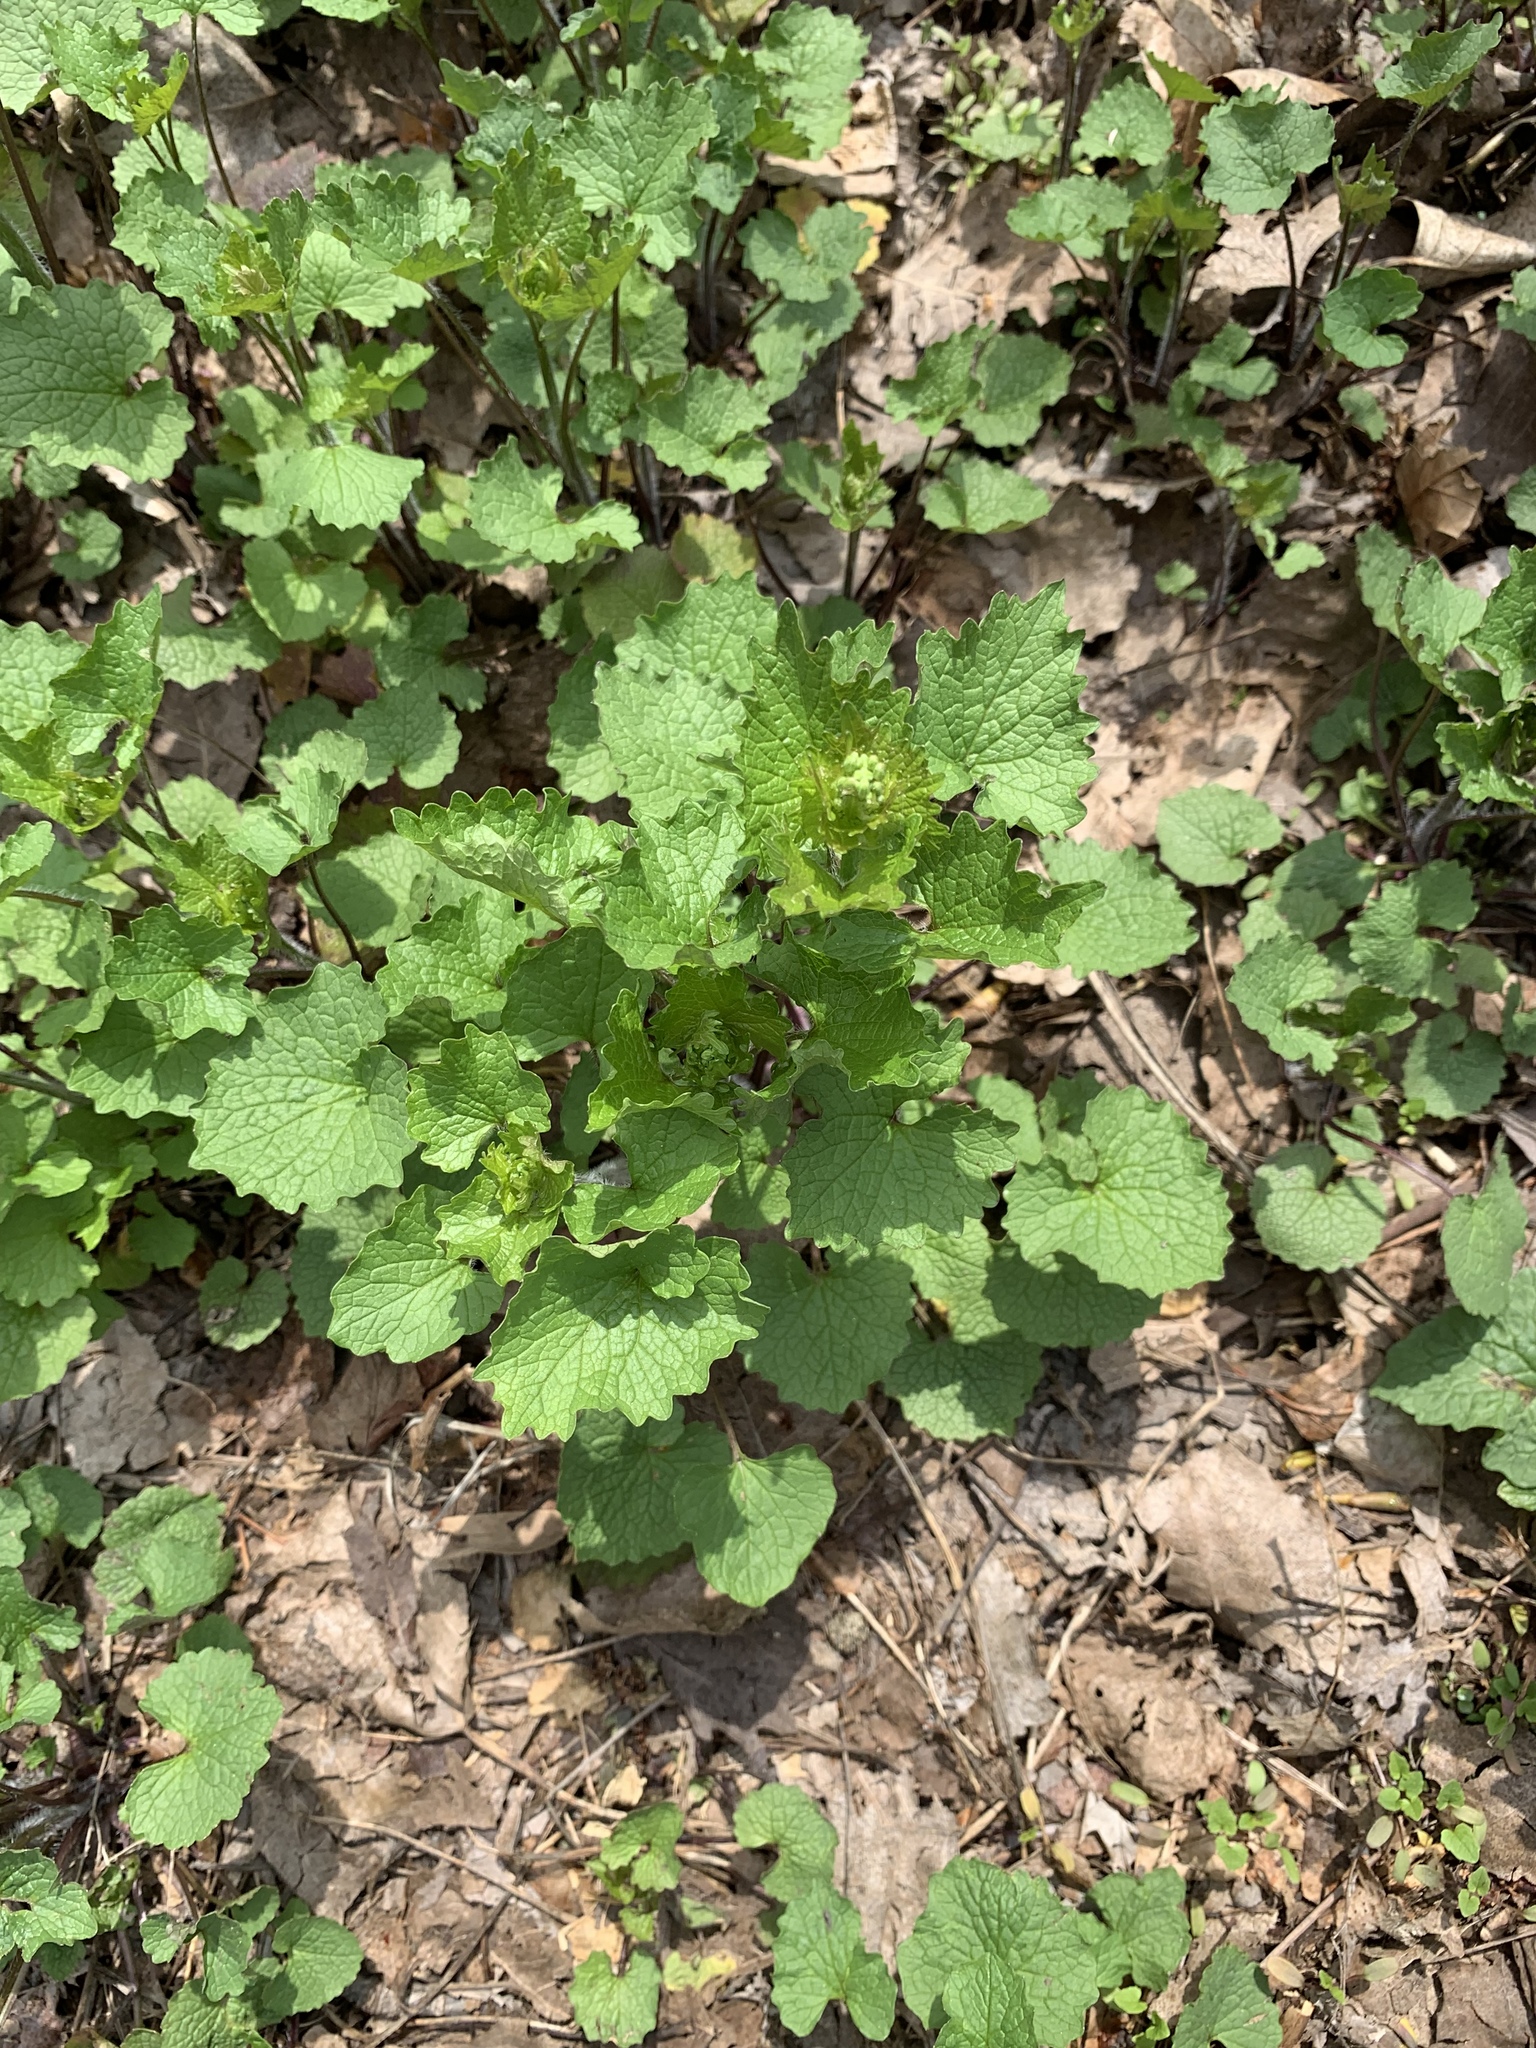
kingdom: Plantae
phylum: Tracheophyta
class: Magnoliopsida
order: Brassicales
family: Brassicaceae
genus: Alliaria
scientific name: Alliaria petiolata
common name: Garlic mustard
